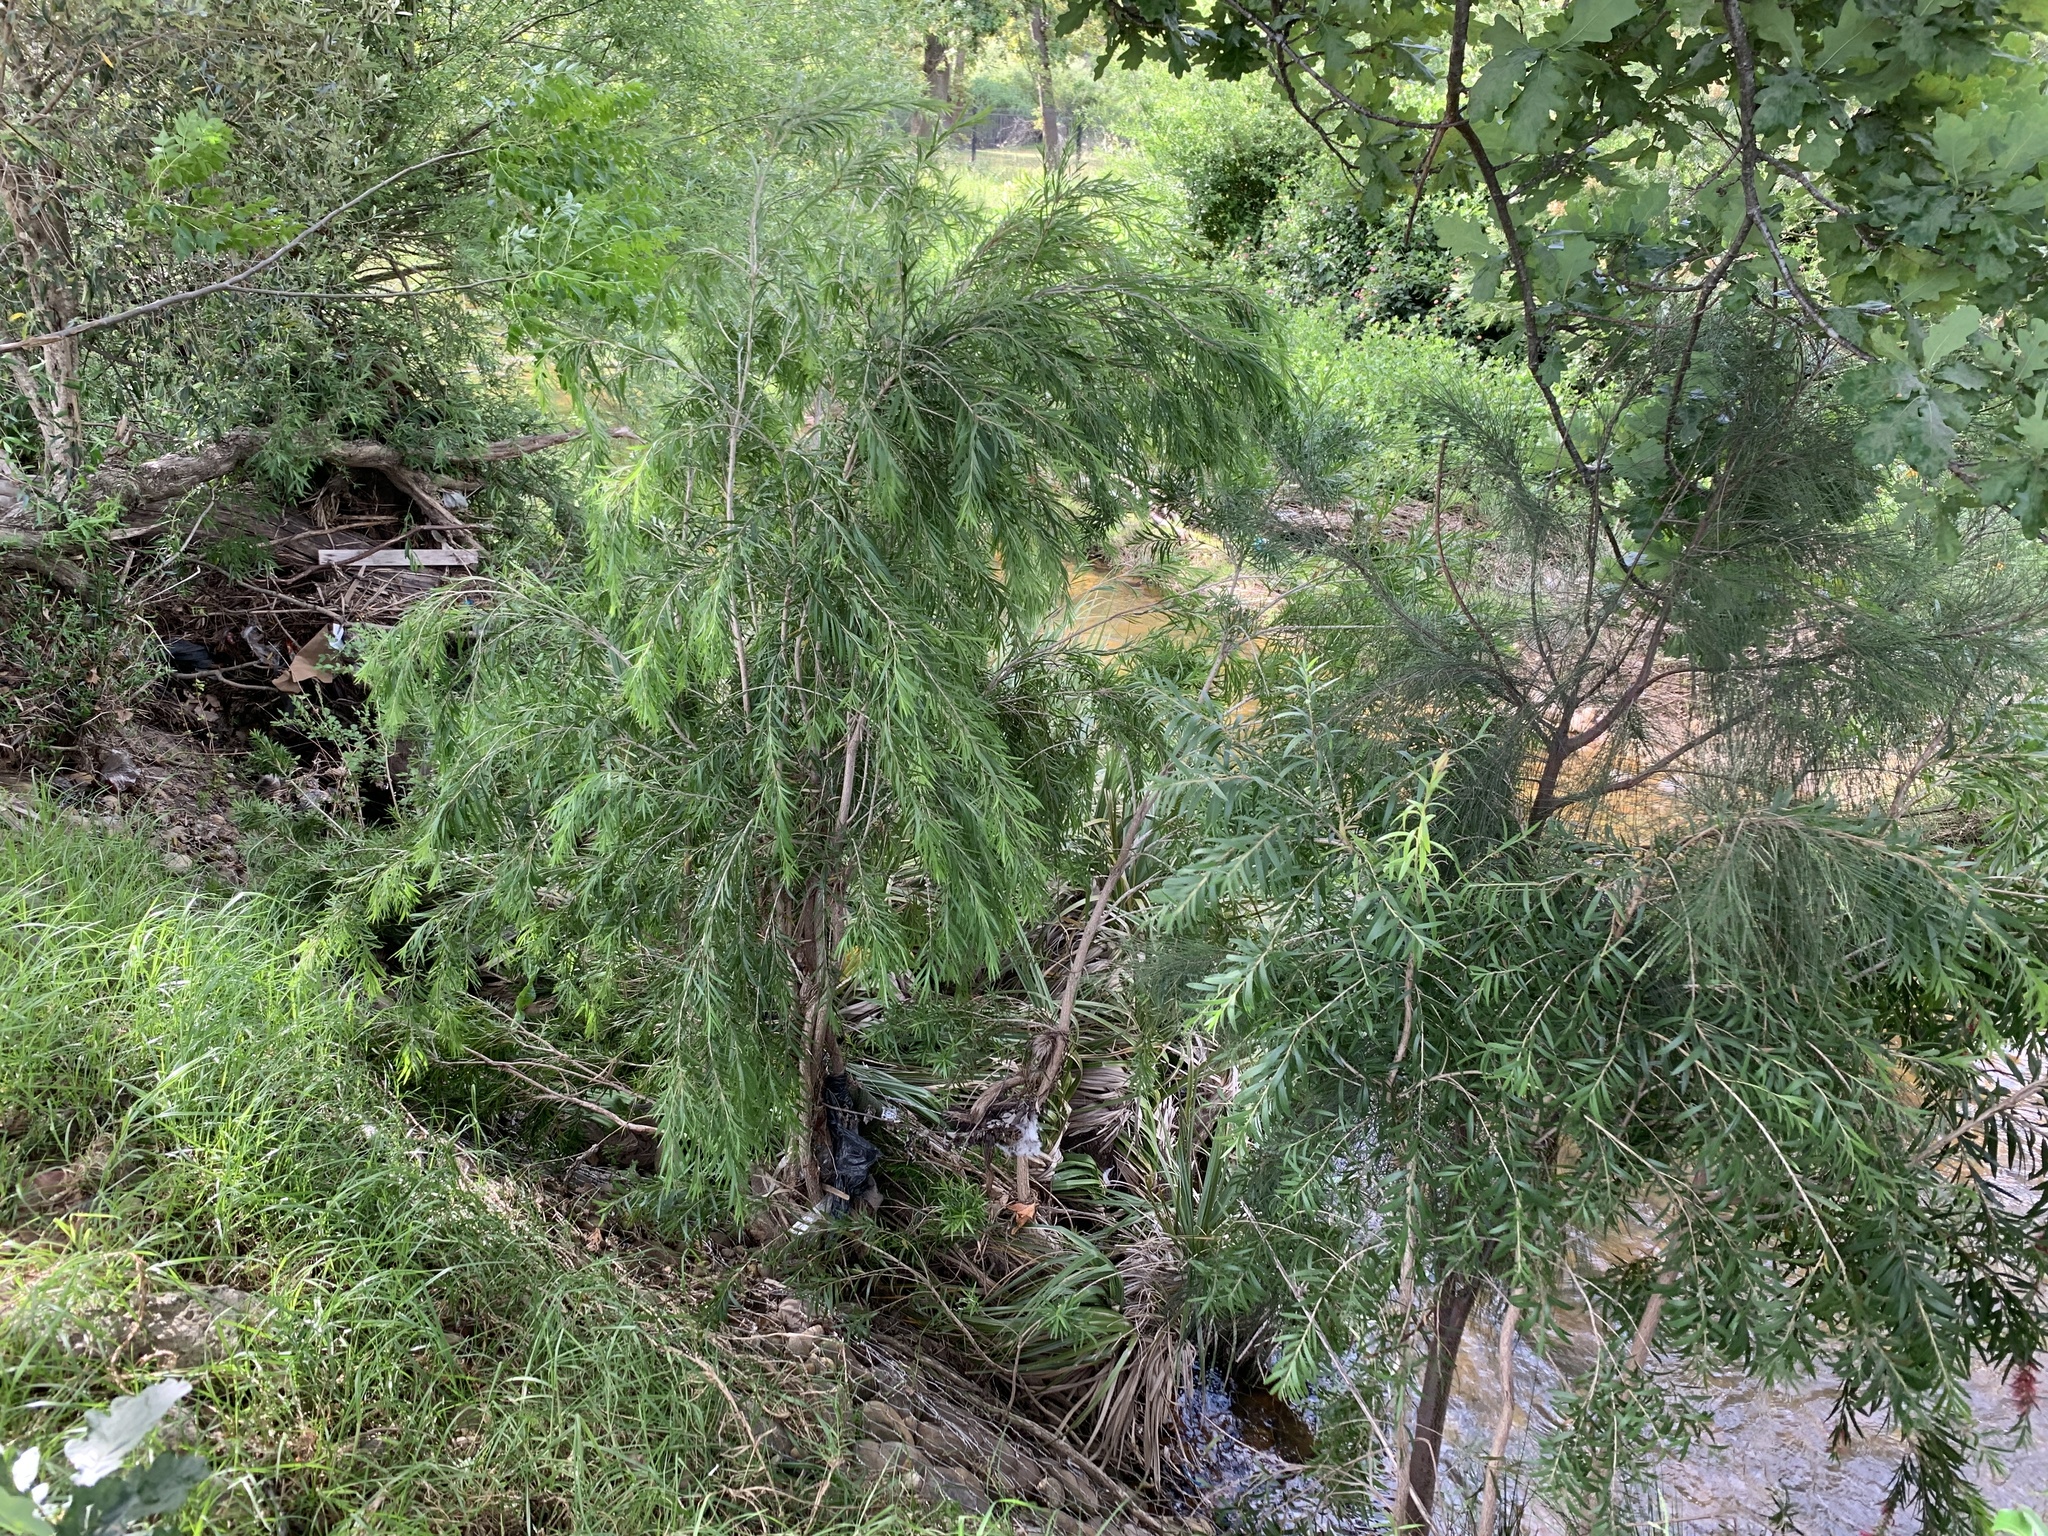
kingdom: Plantae
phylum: Tracheophyta
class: Magnoliopsida
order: Myrtales
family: Myrtaceae
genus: Callistemon
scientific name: Callistemon viminalis
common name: Drooping bottlebrush
